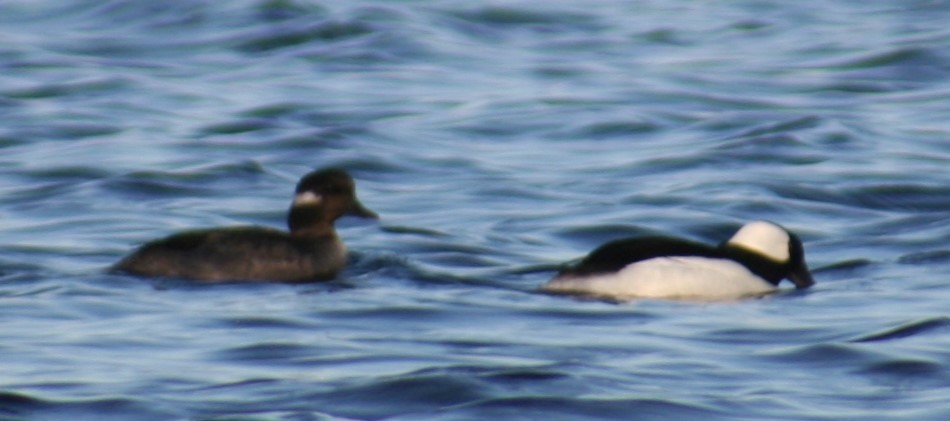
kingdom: Animalia
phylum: Chordata
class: Aves
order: Anseriformes
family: Anatidae
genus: Bucephala
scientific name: Bucephala albeola
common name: Bufflehead
